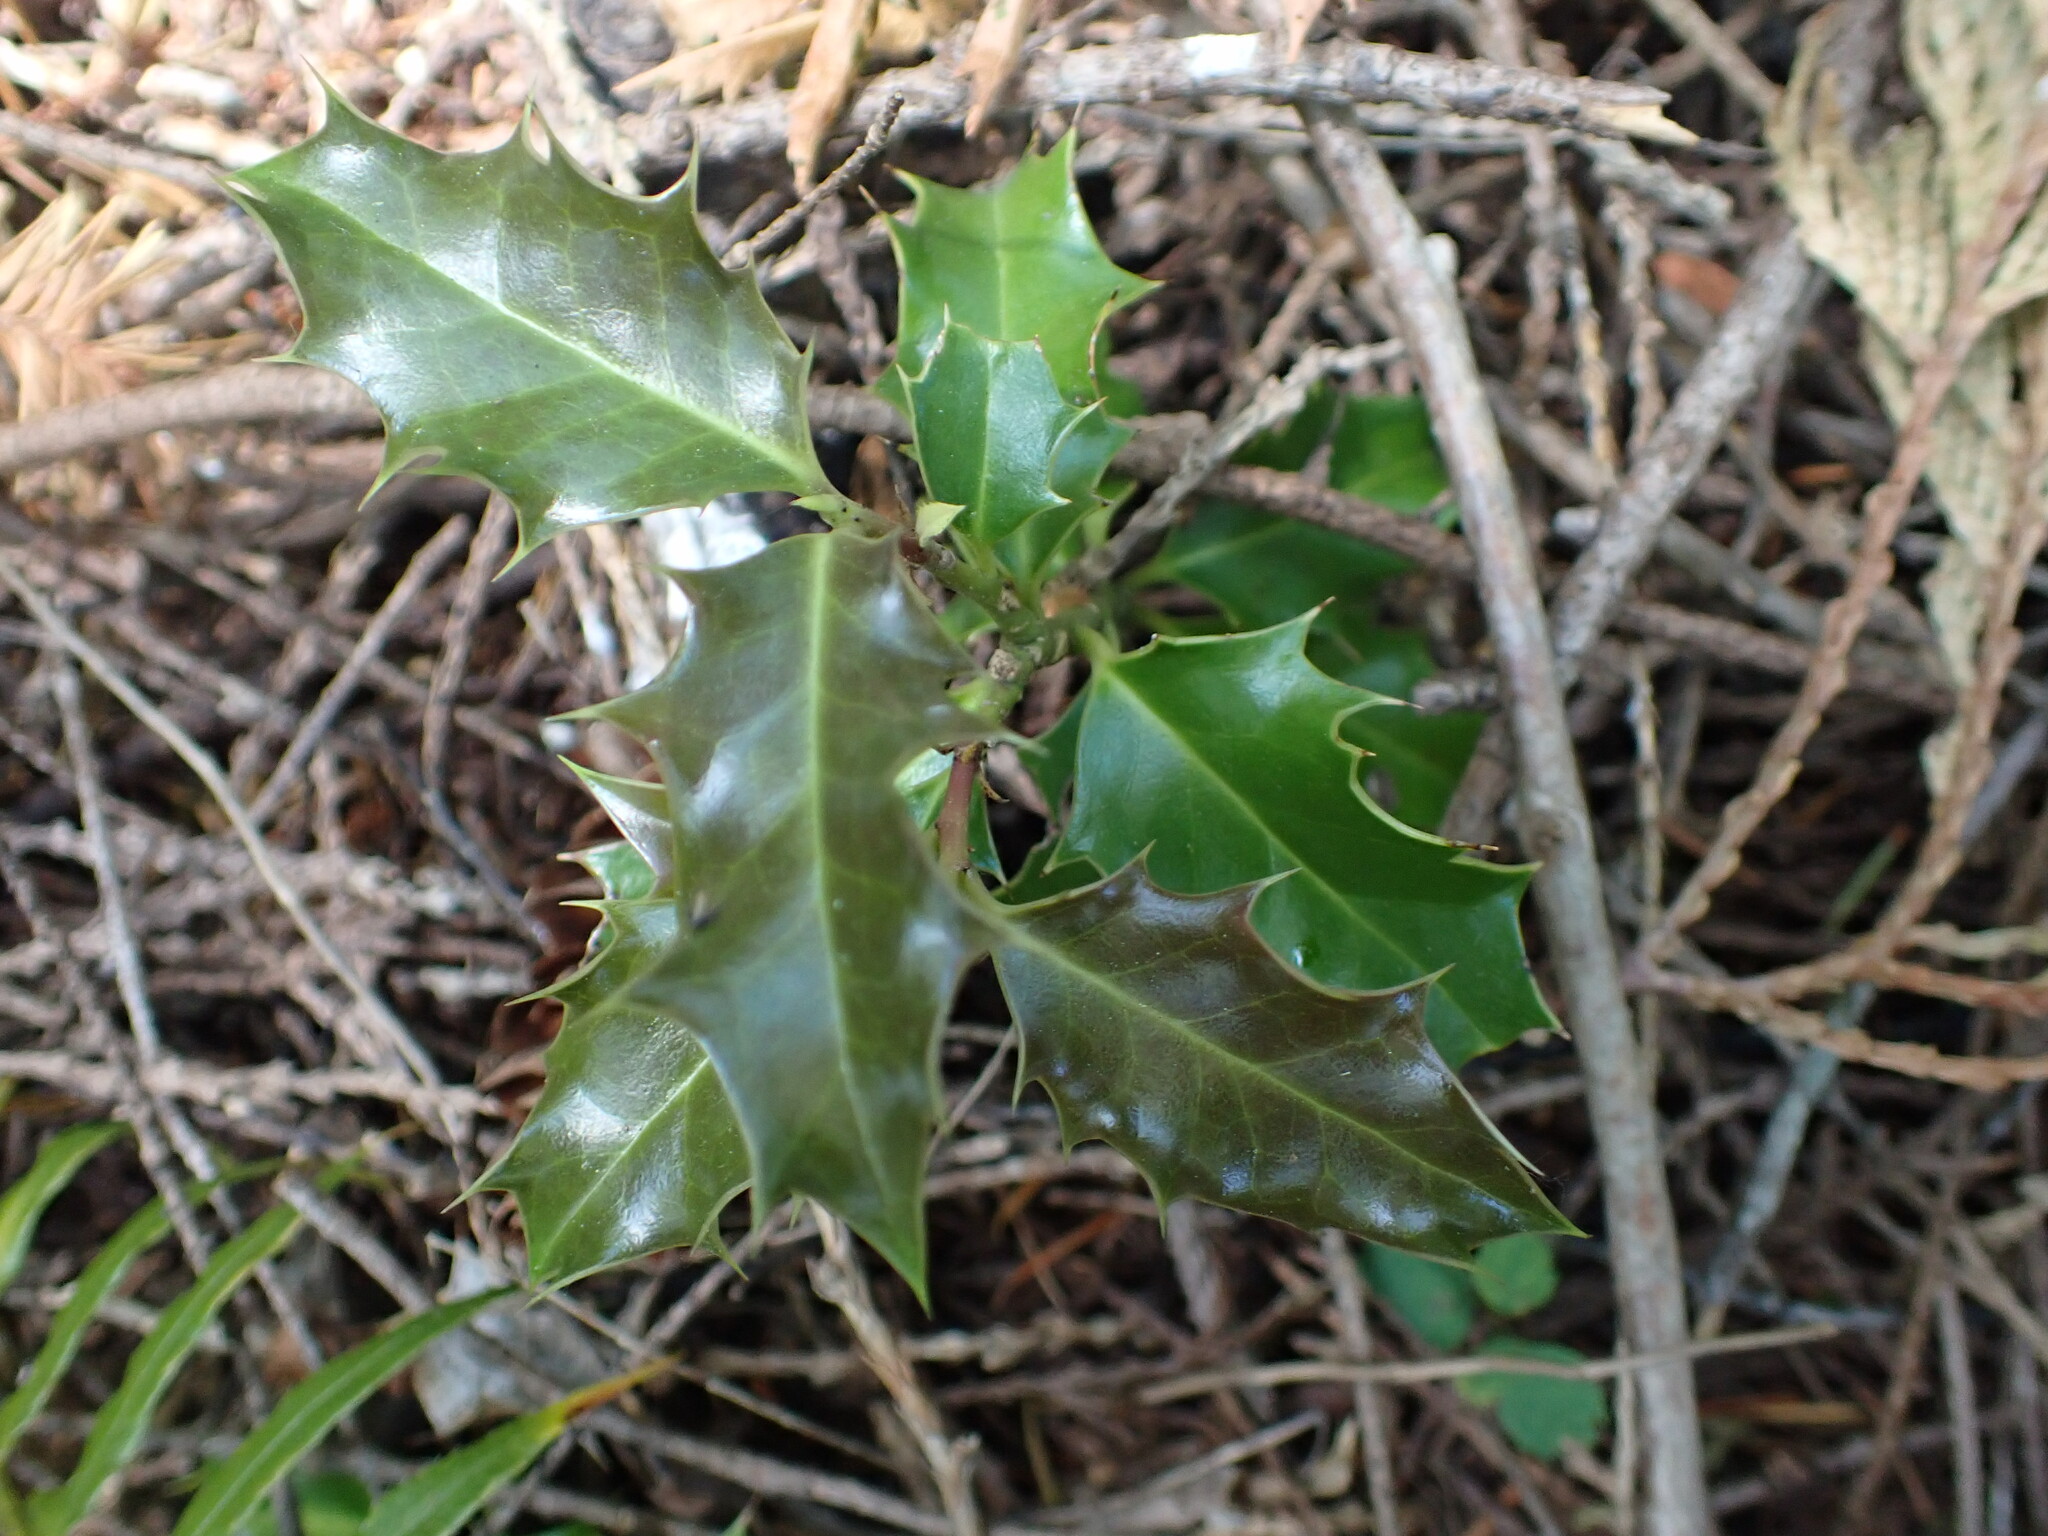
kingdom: Plantae
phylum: Tracheophyta
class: Magnoliopsida
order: Aquifoliales
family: Aquifoliaceae
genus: Ilex
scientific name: Ilex aquifolium
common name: English holly
